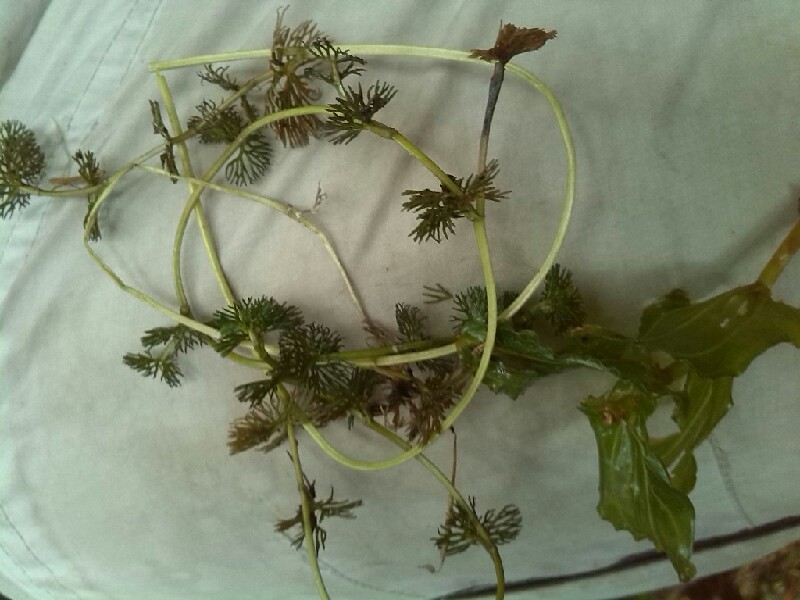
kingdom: Plantae
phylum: Tracheophyta
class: Liliopsida
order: Alismatales
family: Potamogetonaceae
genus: Potamogeton
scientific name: Potamogeton perfoliatus
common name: Perfoliate pondweed
